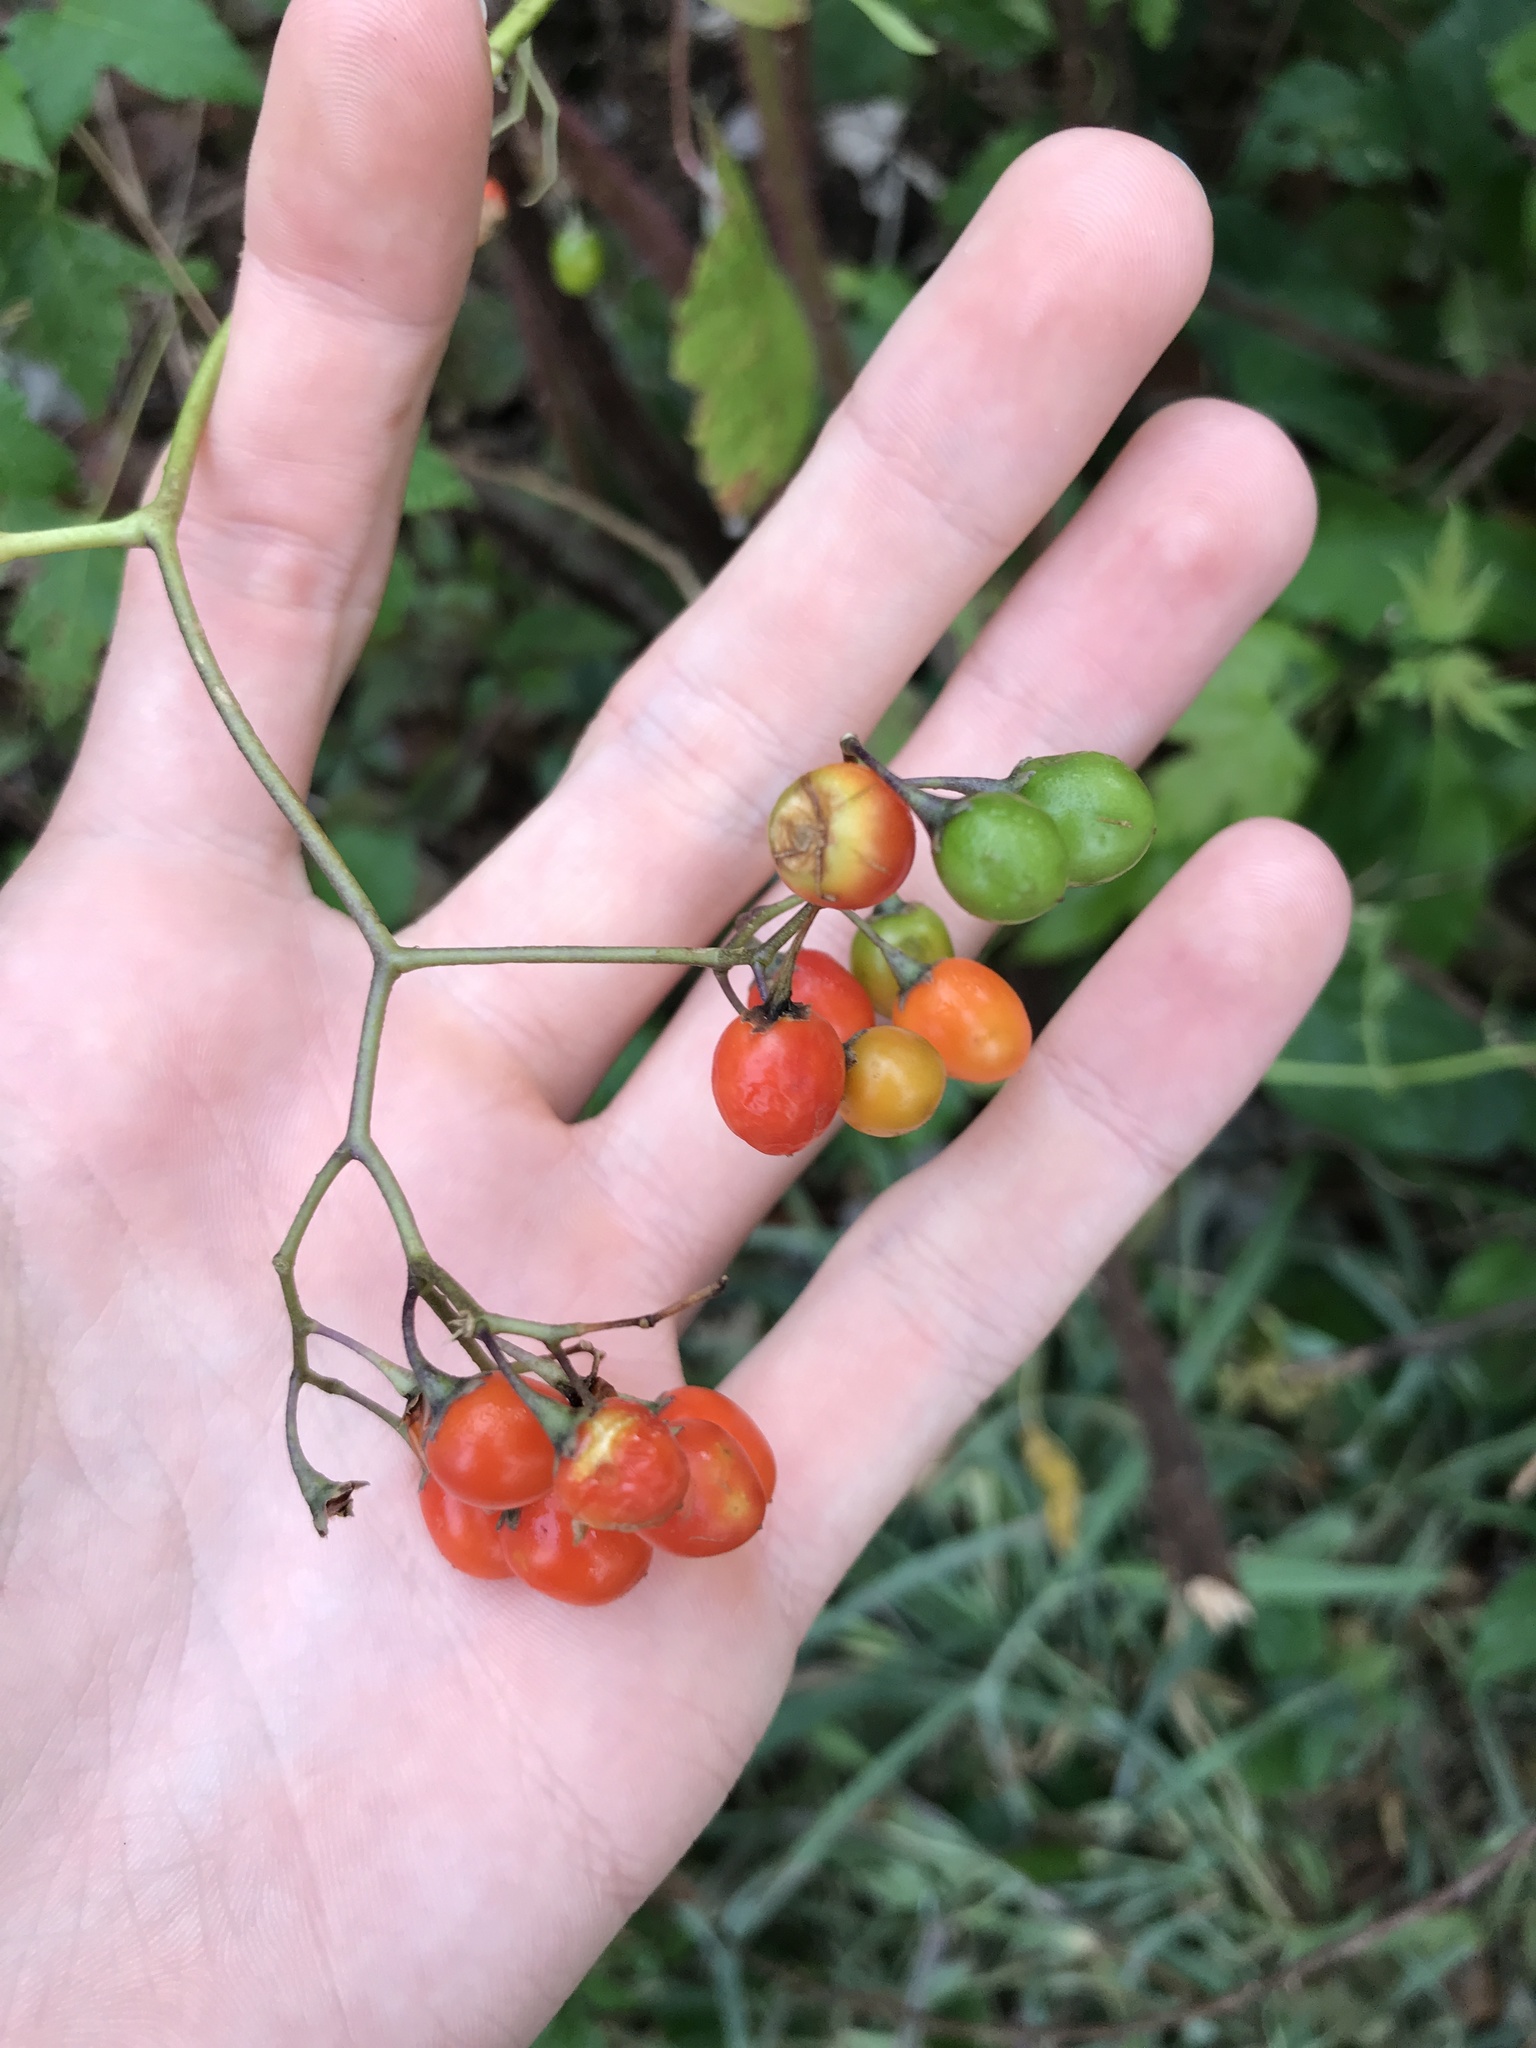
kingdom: Plantae
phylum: Tracheophyta
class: Magnoliopsida
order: Solanales
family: Solanaceae
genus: Solanum
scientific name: Solanum dulcamara
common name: Climbing nightshade
